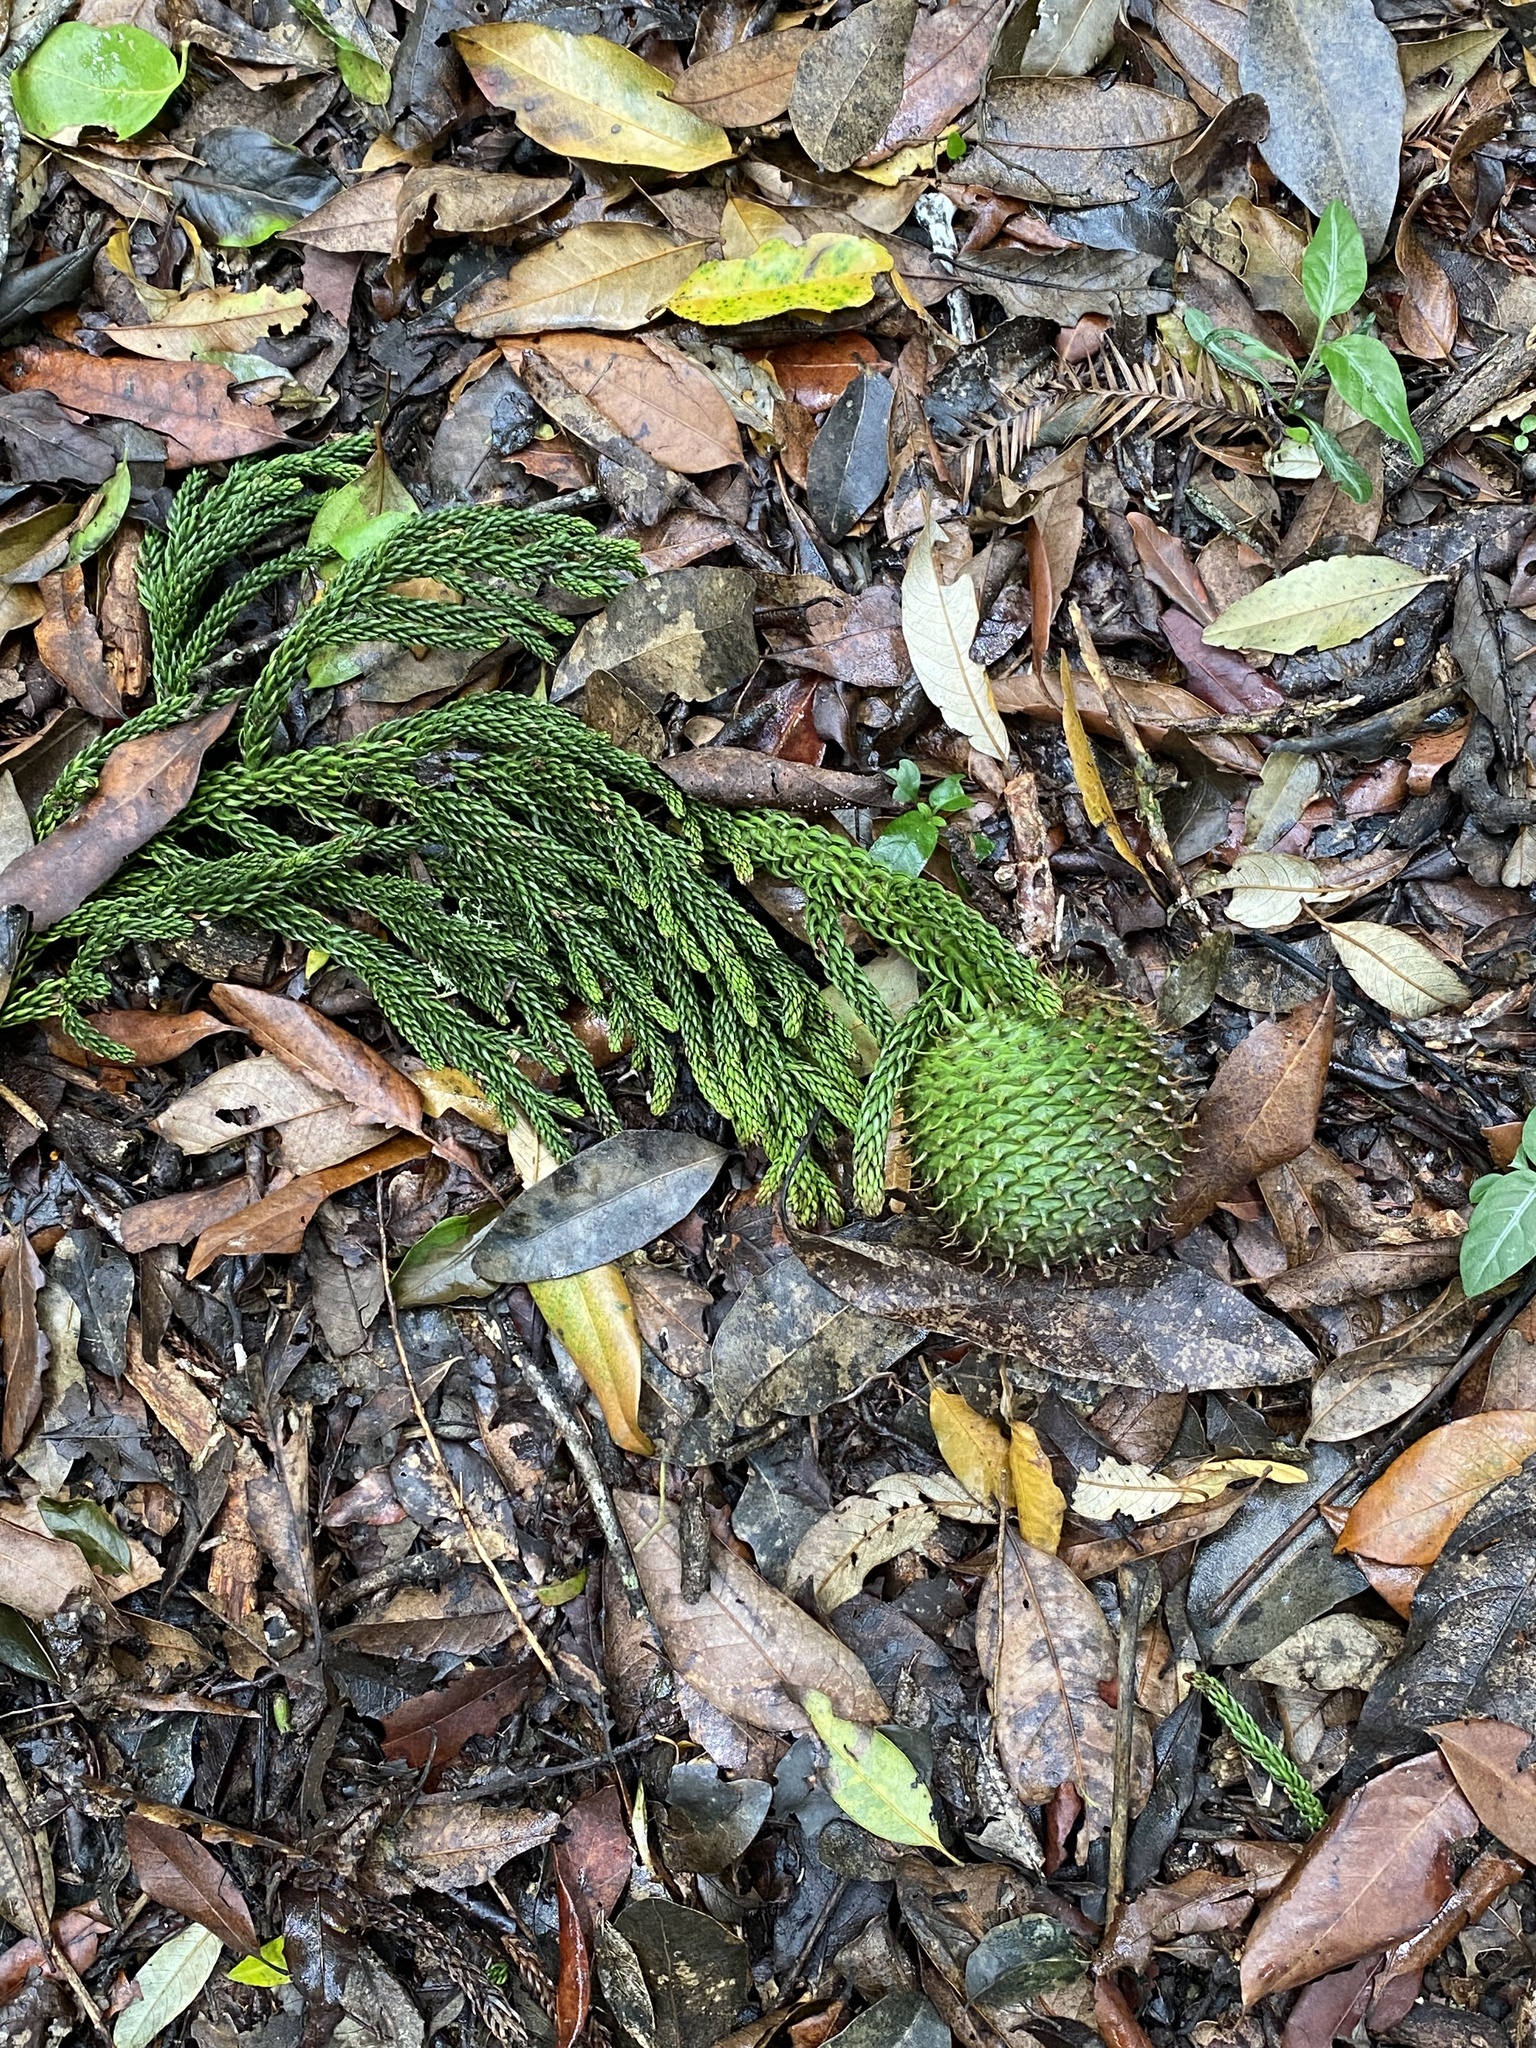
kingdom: Plantae
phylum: Tracheophyta
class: Pinopsida
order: Pinales
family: Araucariaceae
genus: Araucaria
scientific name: Araucaria cunninghamii
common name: Colonial pine
